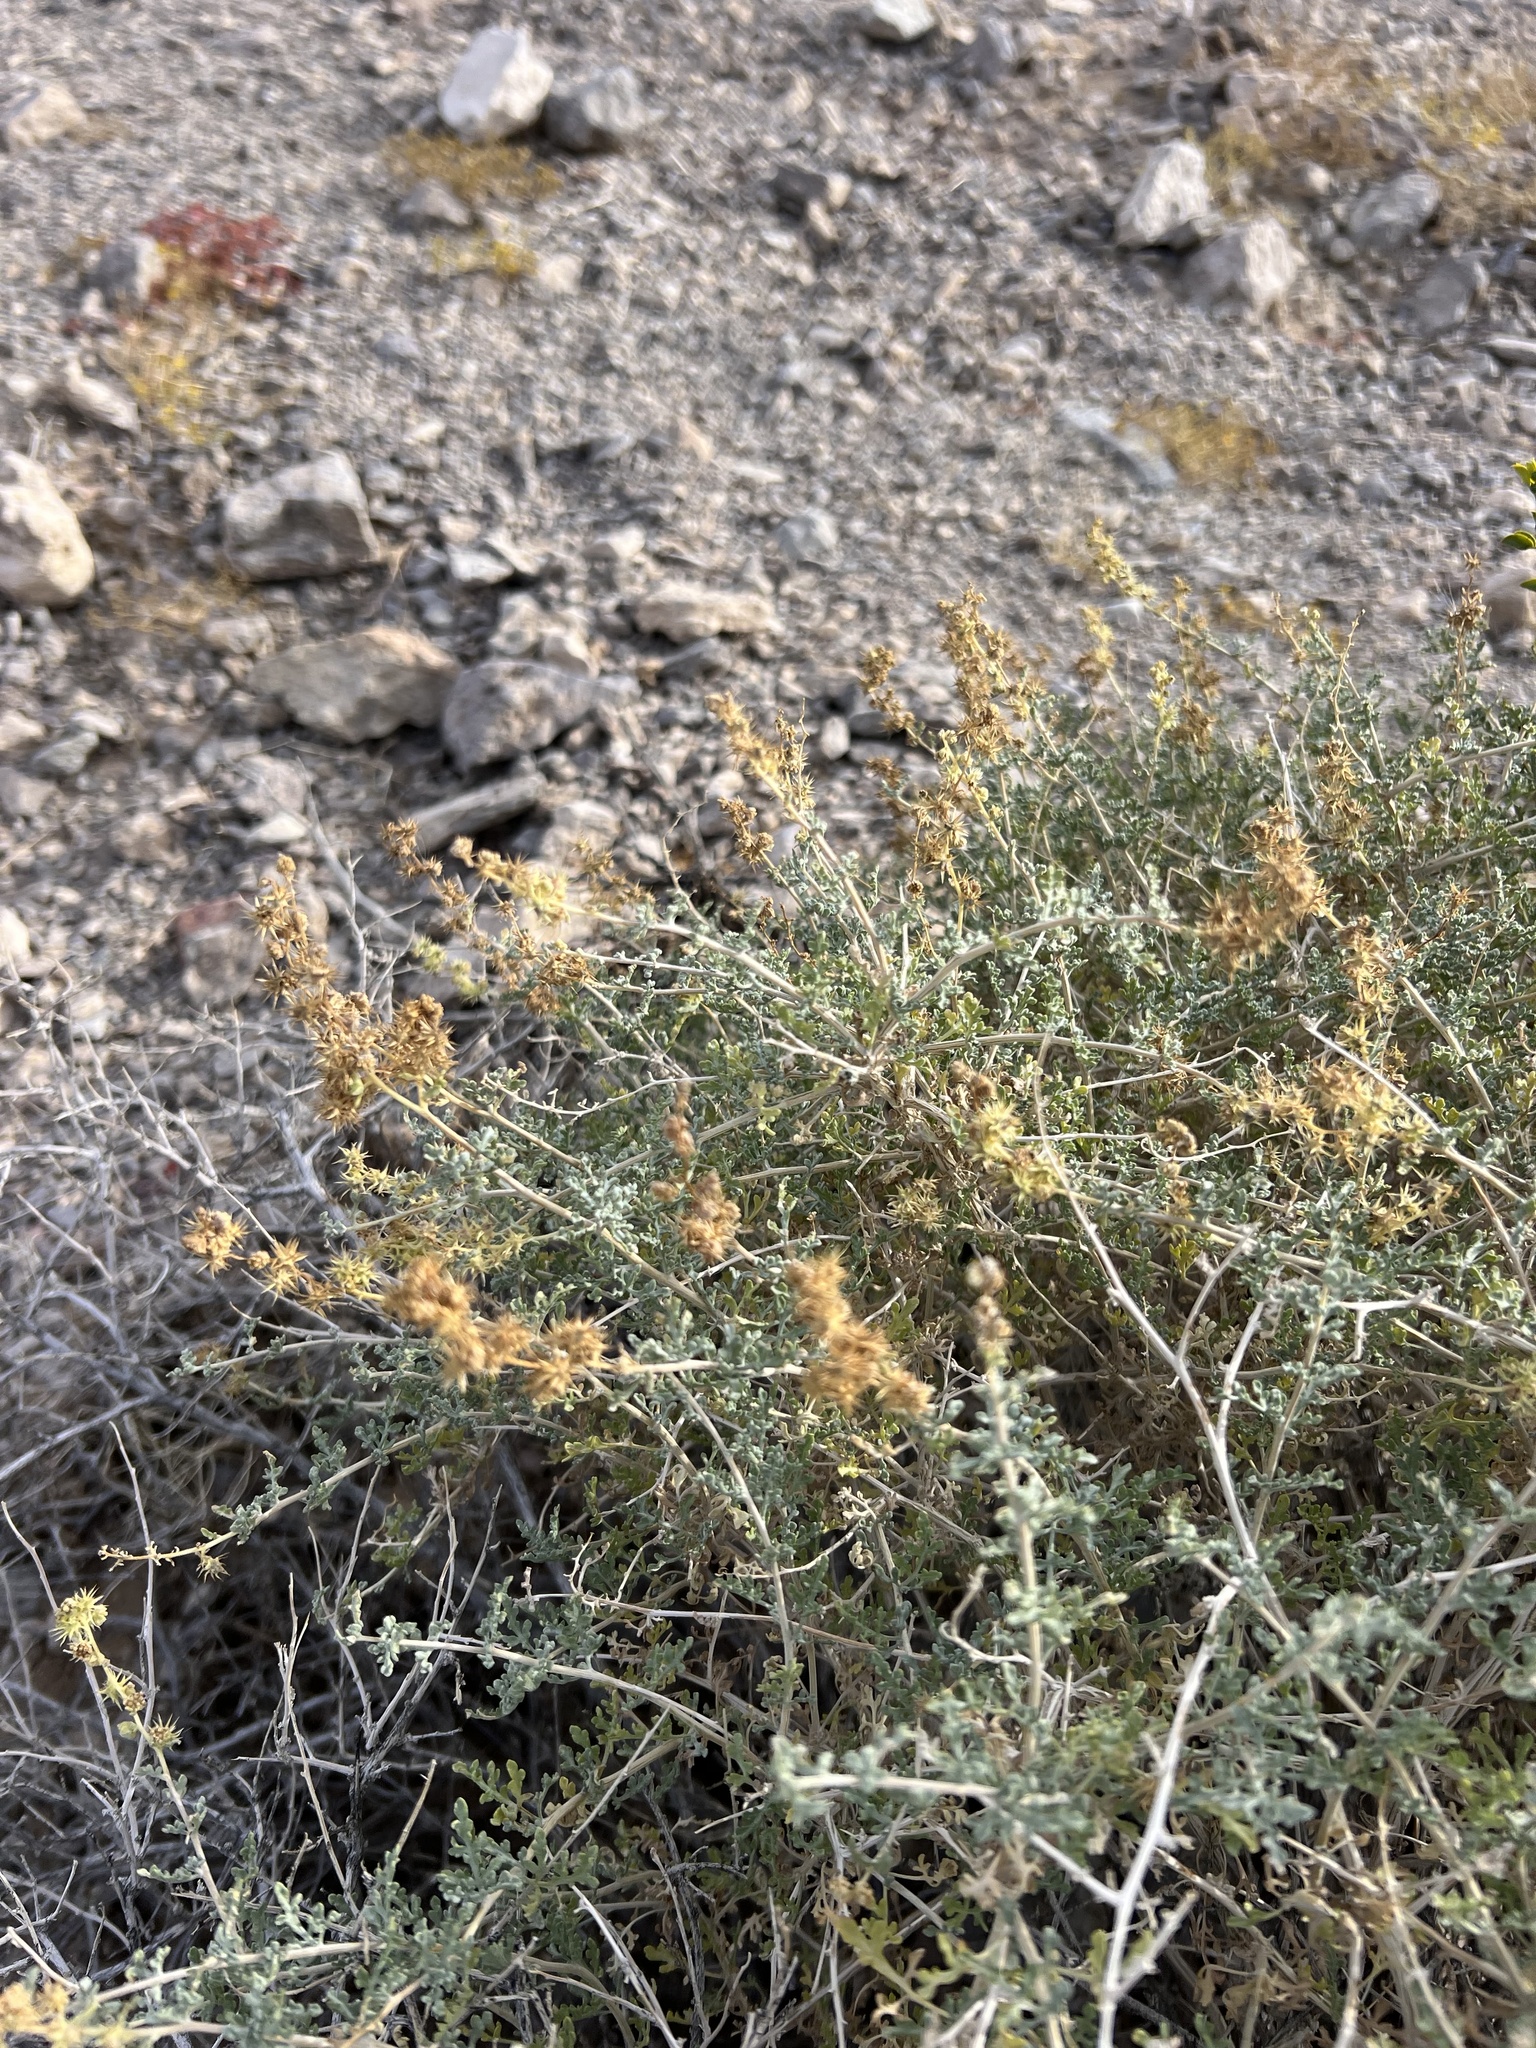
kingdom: Plantae
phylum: Tracheophyta
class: Magnoliopsida
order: Asterales
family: Asteraceae
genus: Ambrosia
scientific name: Ambrosia dumosa
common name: Bur-sage
